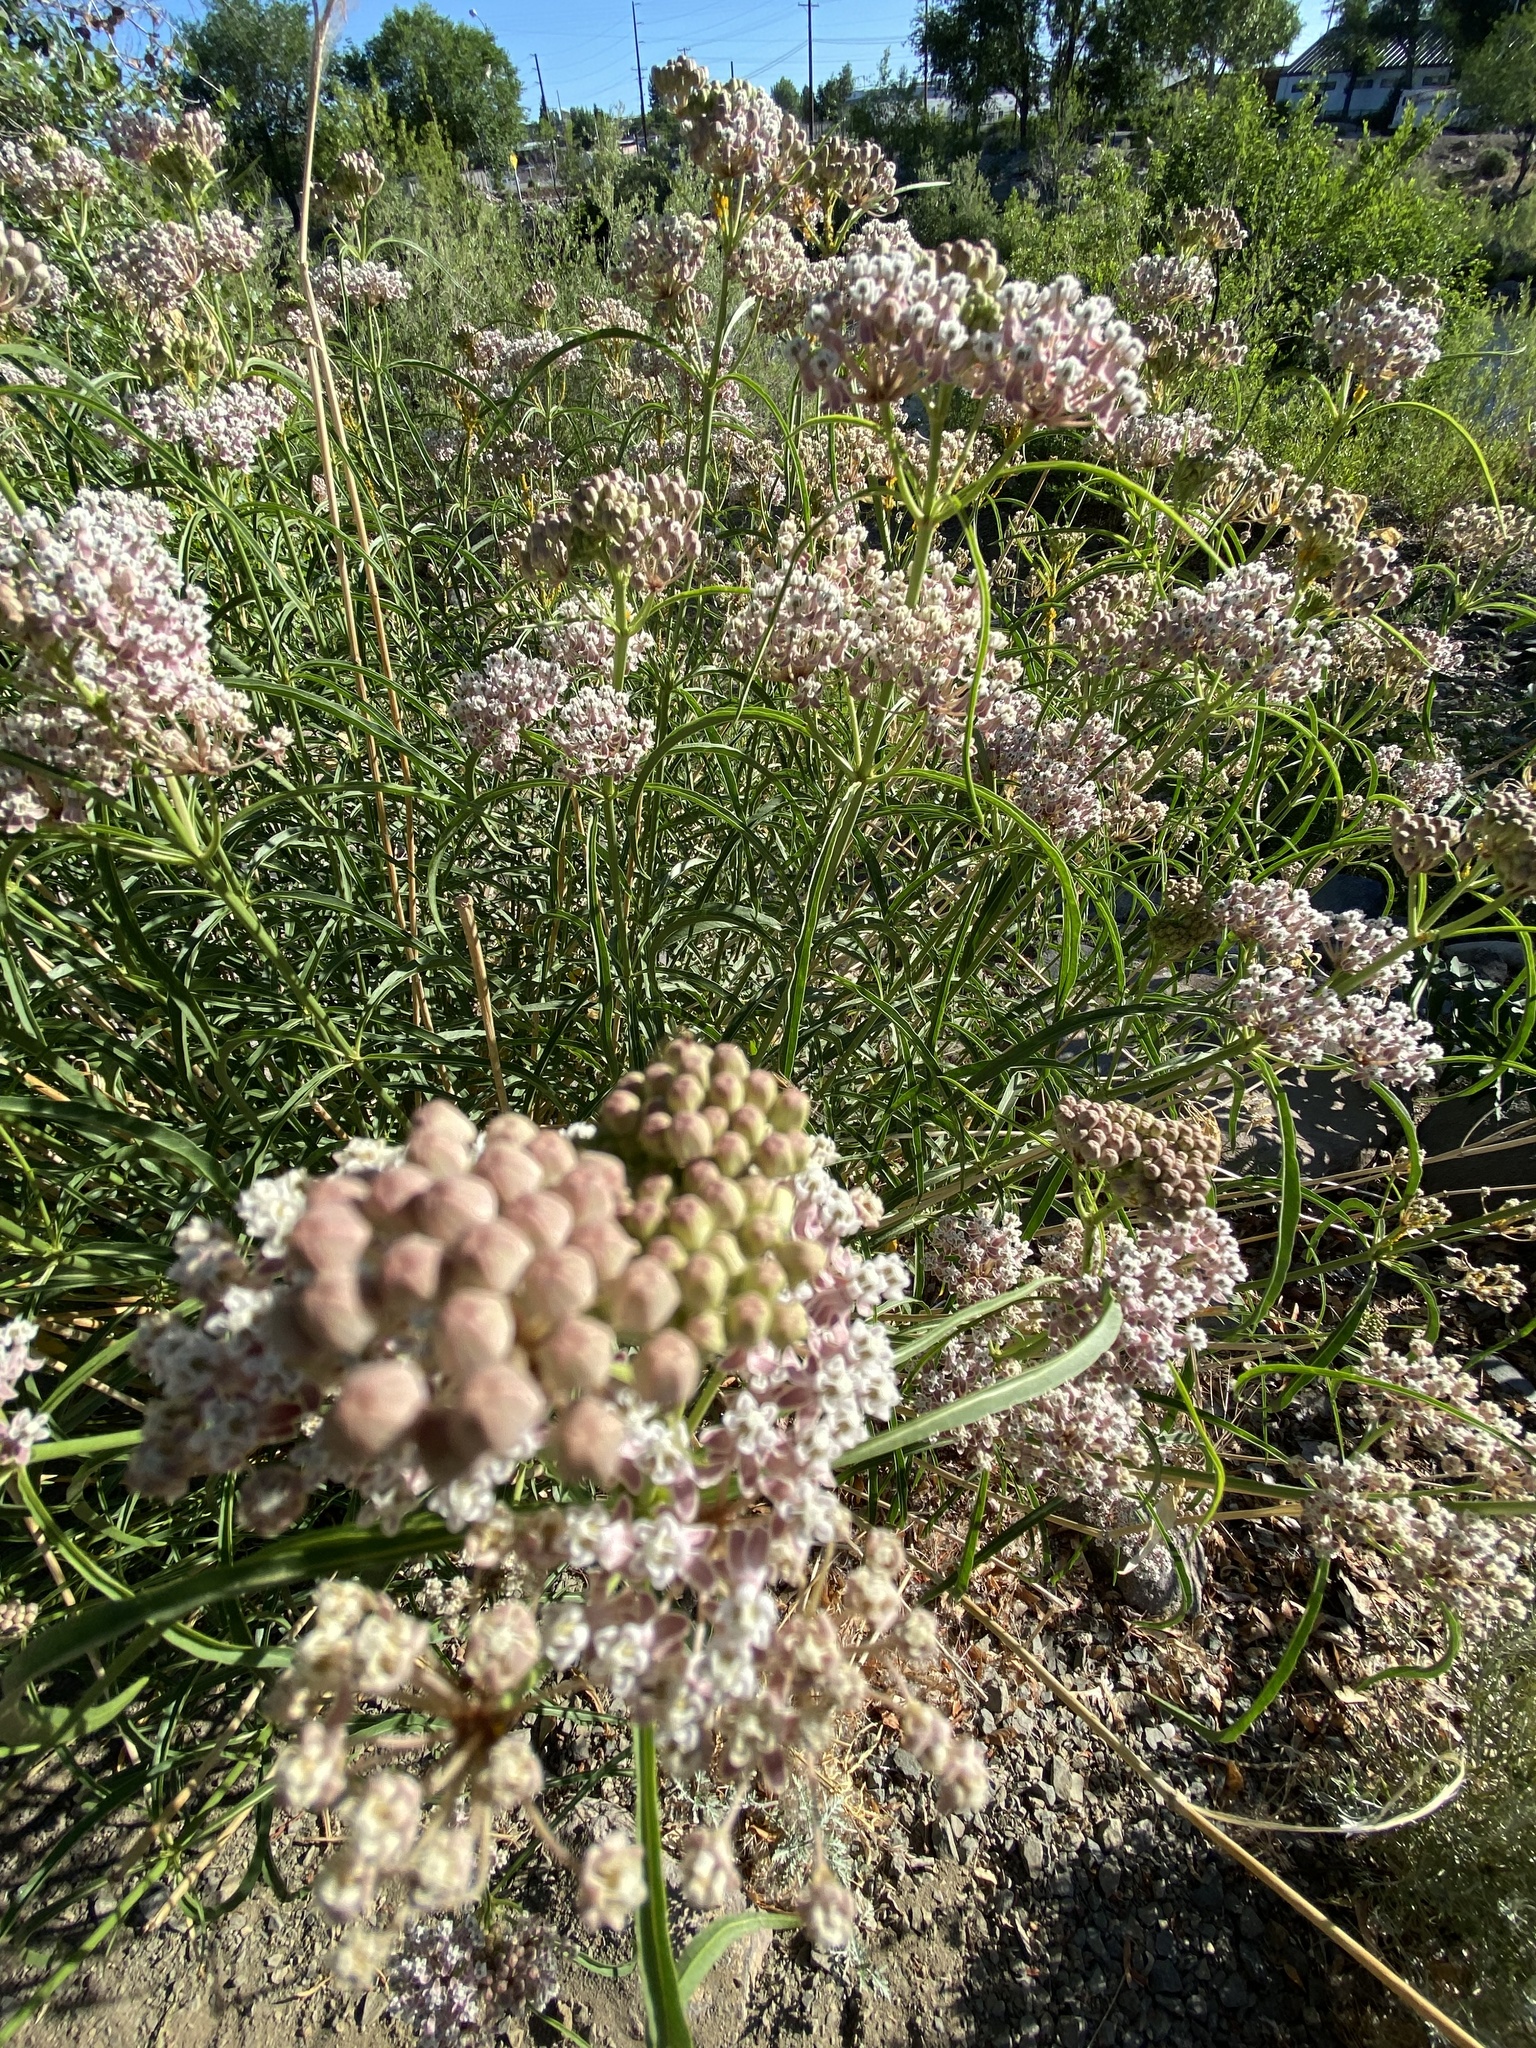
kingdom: Plantae
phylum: Tracheophyta
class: Magnoliopsida
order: Gentianales
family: Apocynaceae
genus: Asclepias
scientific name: Asclepias fascicularis
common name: Mexican milkweed
